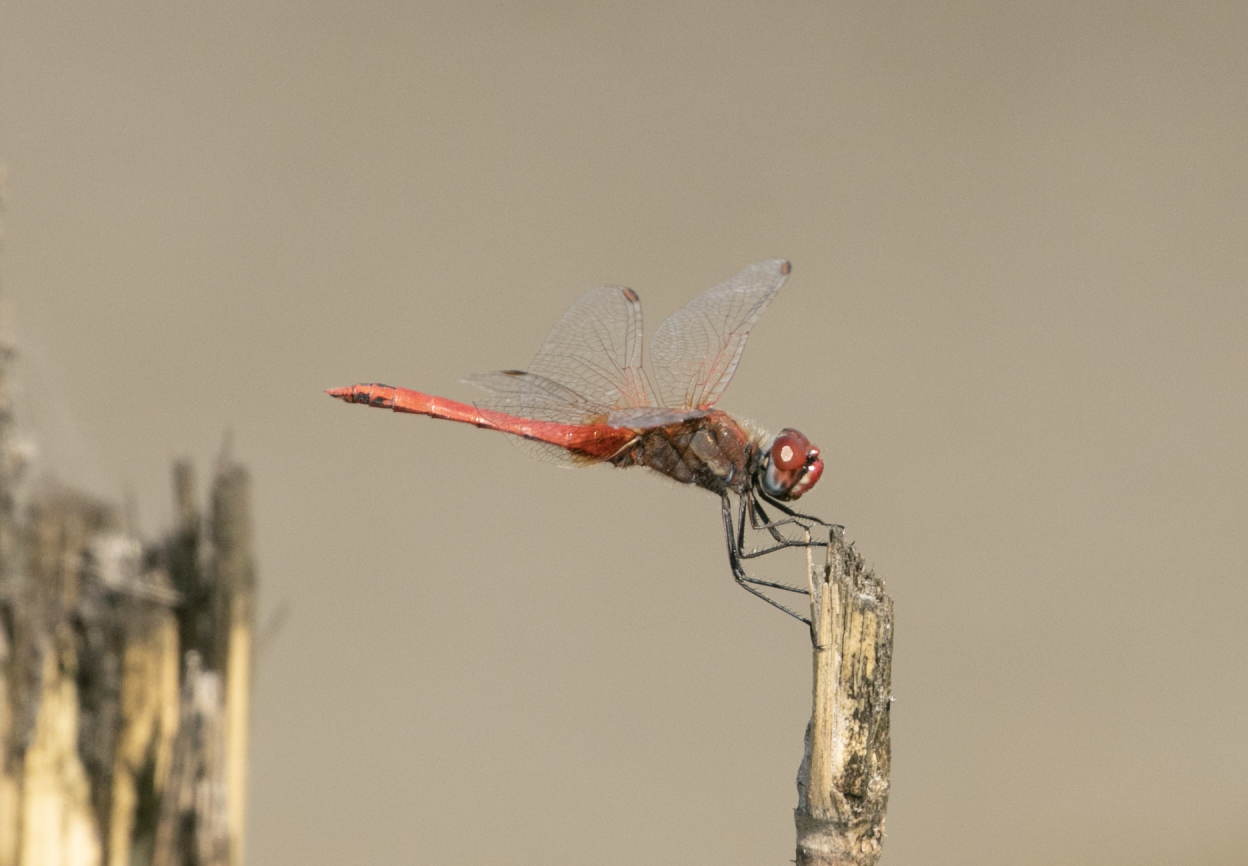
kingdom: Animalia
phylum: Arthropoda
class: Insecta
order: Odonata
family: Libellulidae
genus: Sympetrum
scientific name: Sympetrum fonscolombii
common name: Red-veined darter
